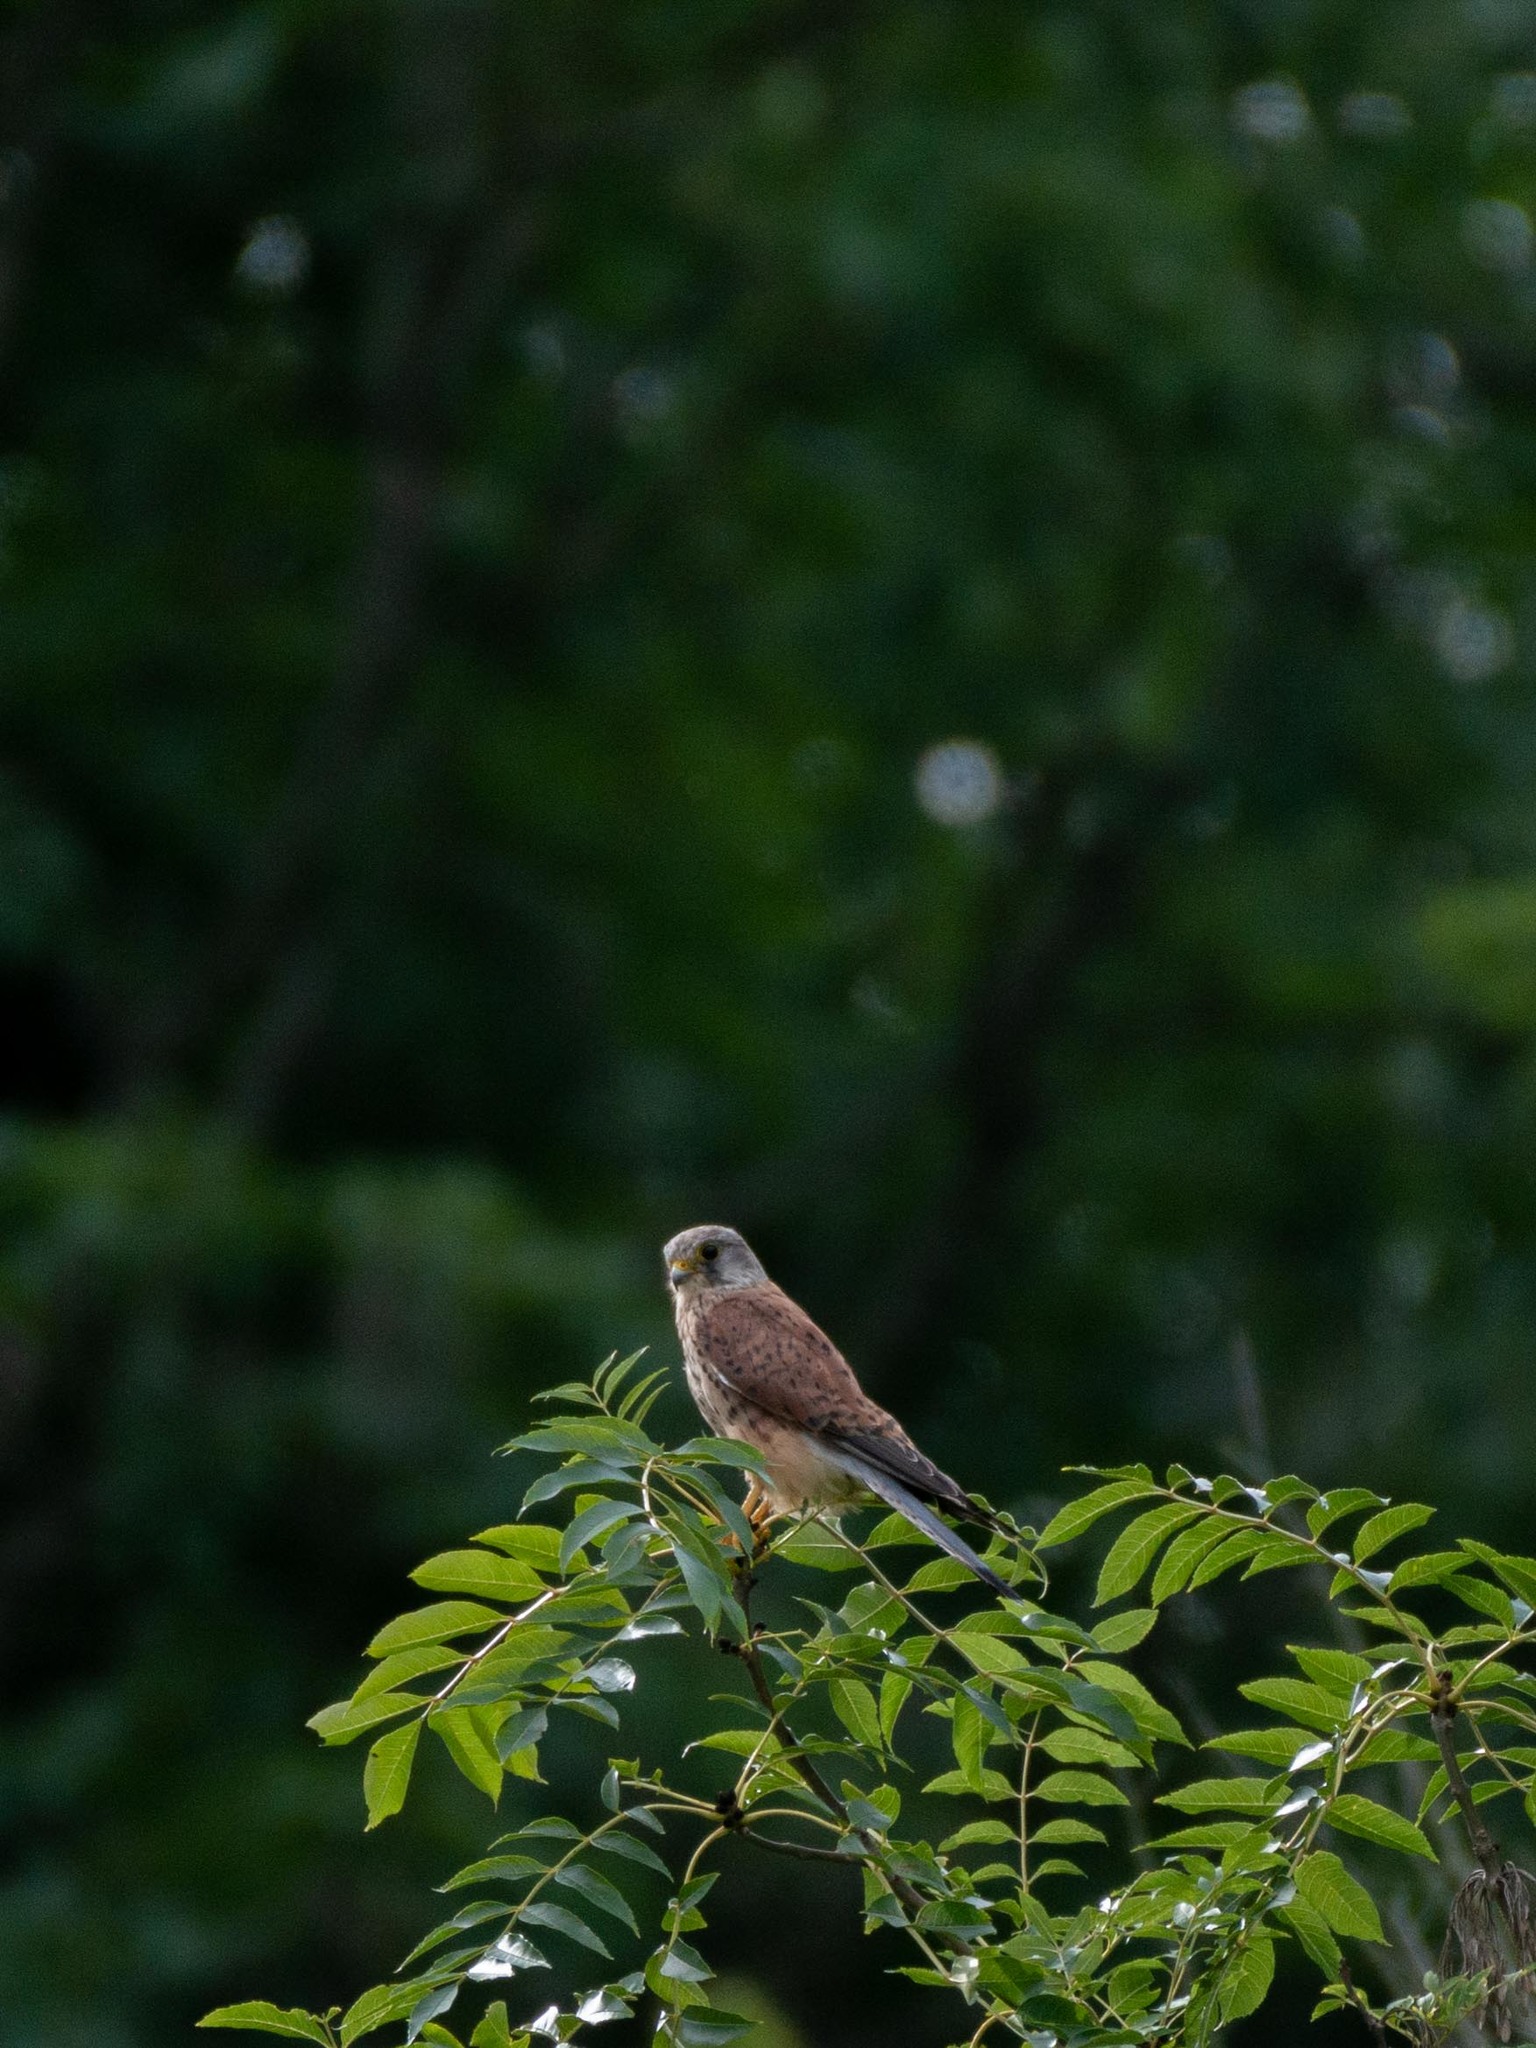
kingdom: Animalia
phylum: Chordata
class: Aves
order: Falconiformes
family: Falconidae
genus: Falco
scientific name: Falco tinnunculus
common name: Common kestrel
